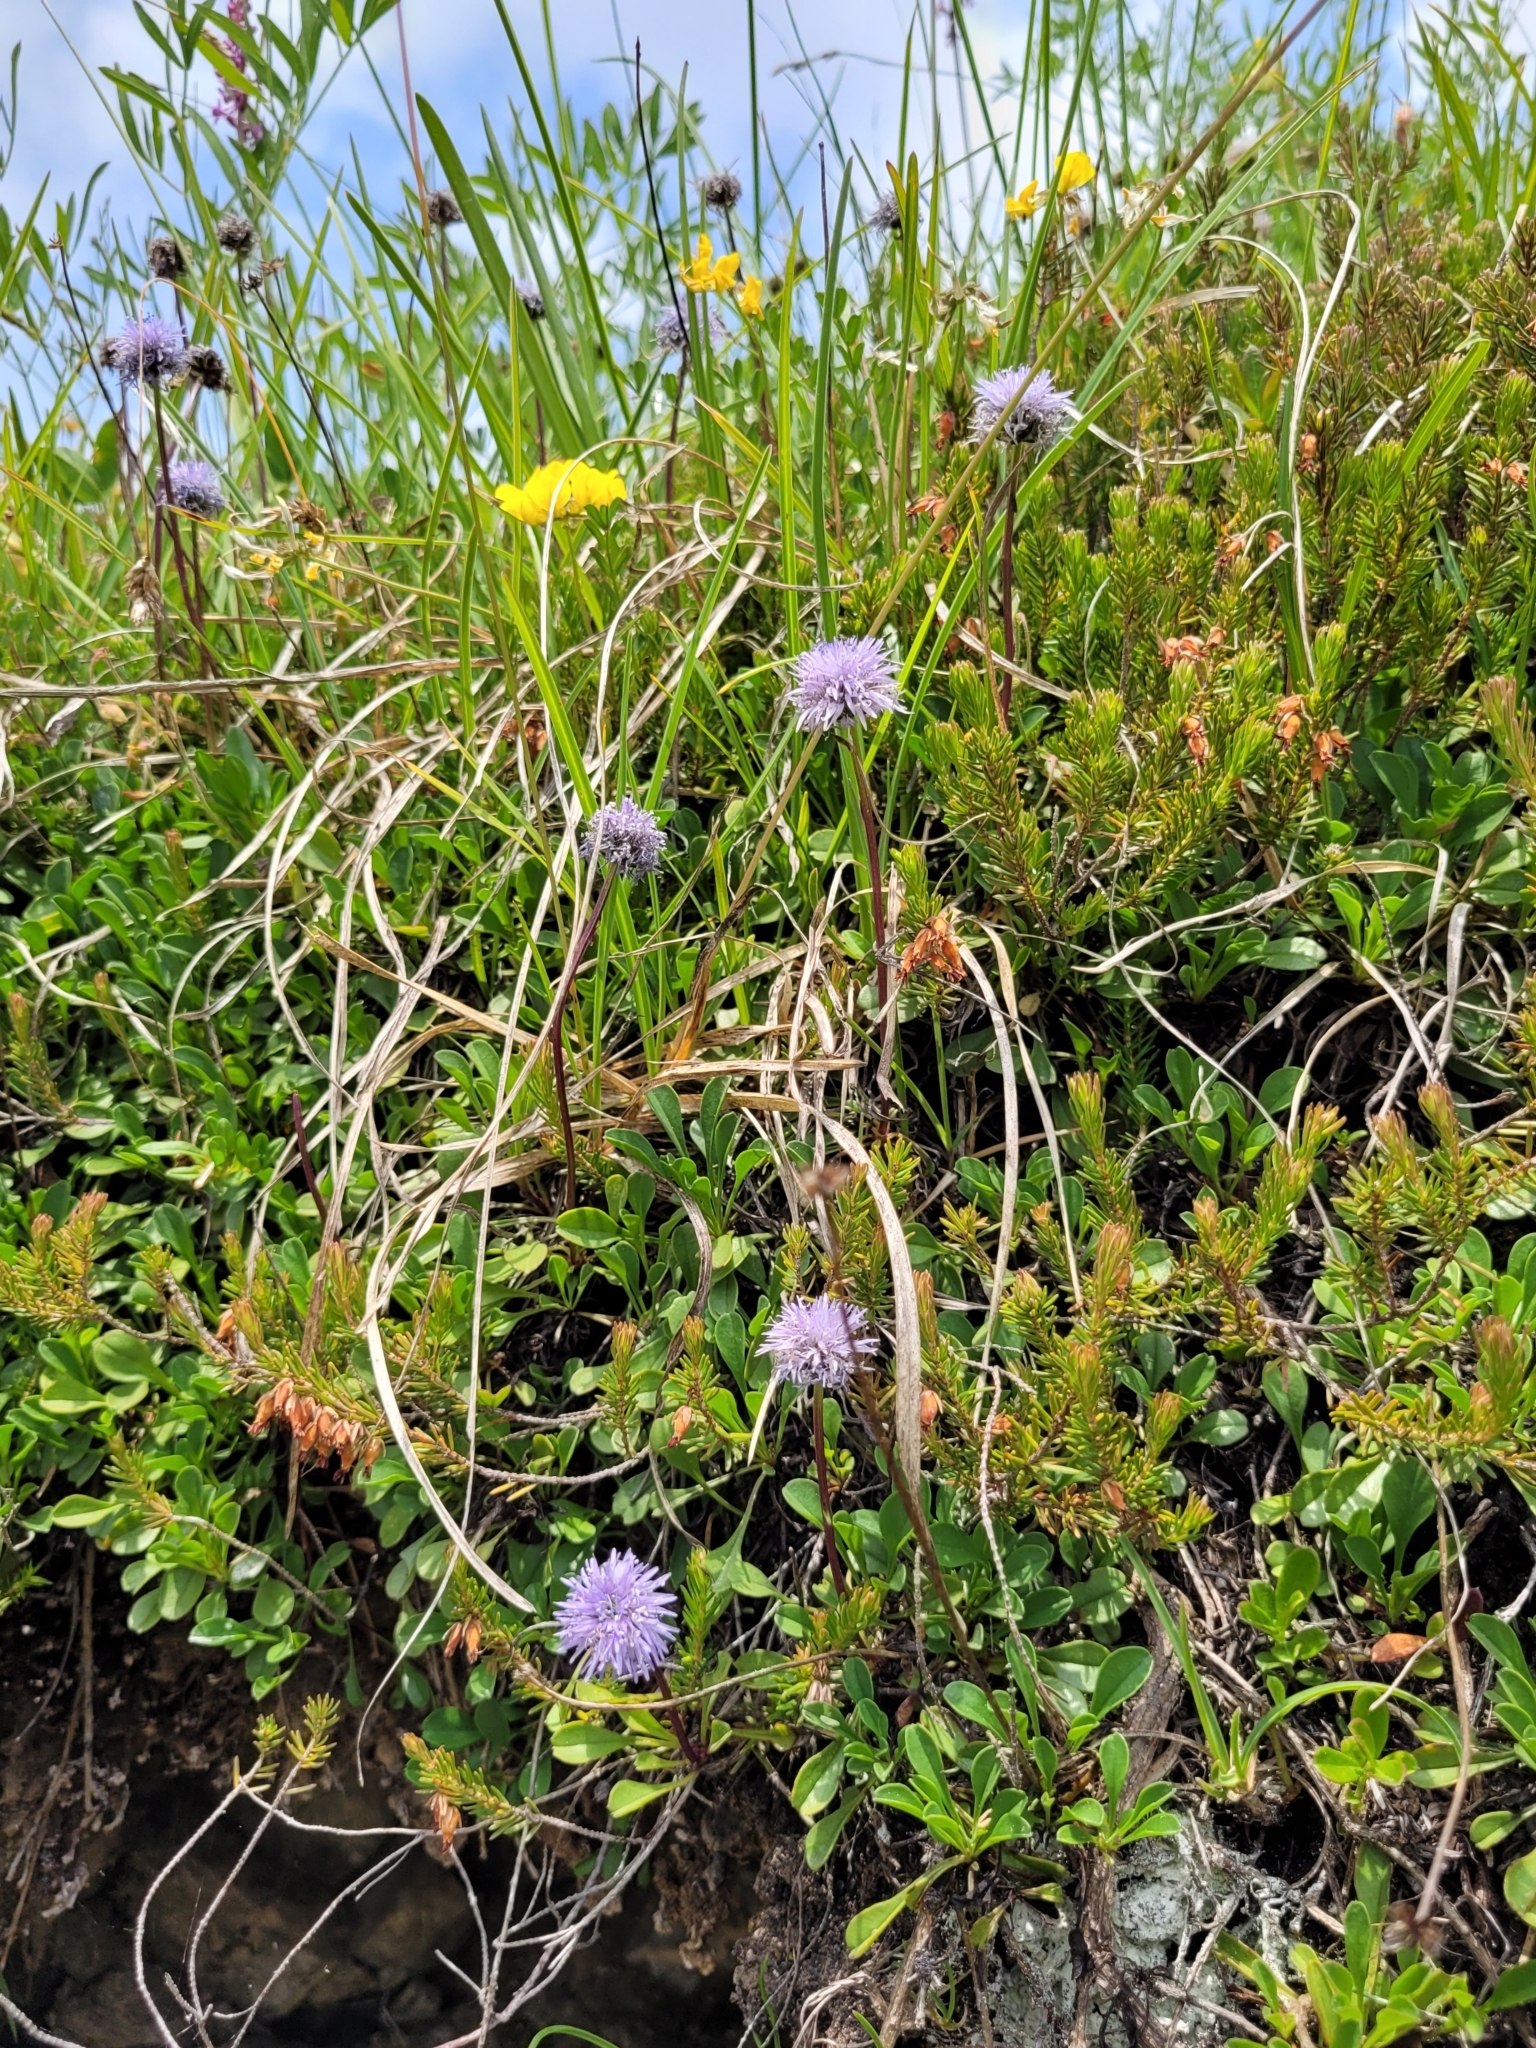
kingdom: Plantae
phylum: Tracheophyta
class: Magnoliopsida
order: Lamiales
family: Plantaginaceae
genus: Globularia
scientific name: Globularia cordifolia
